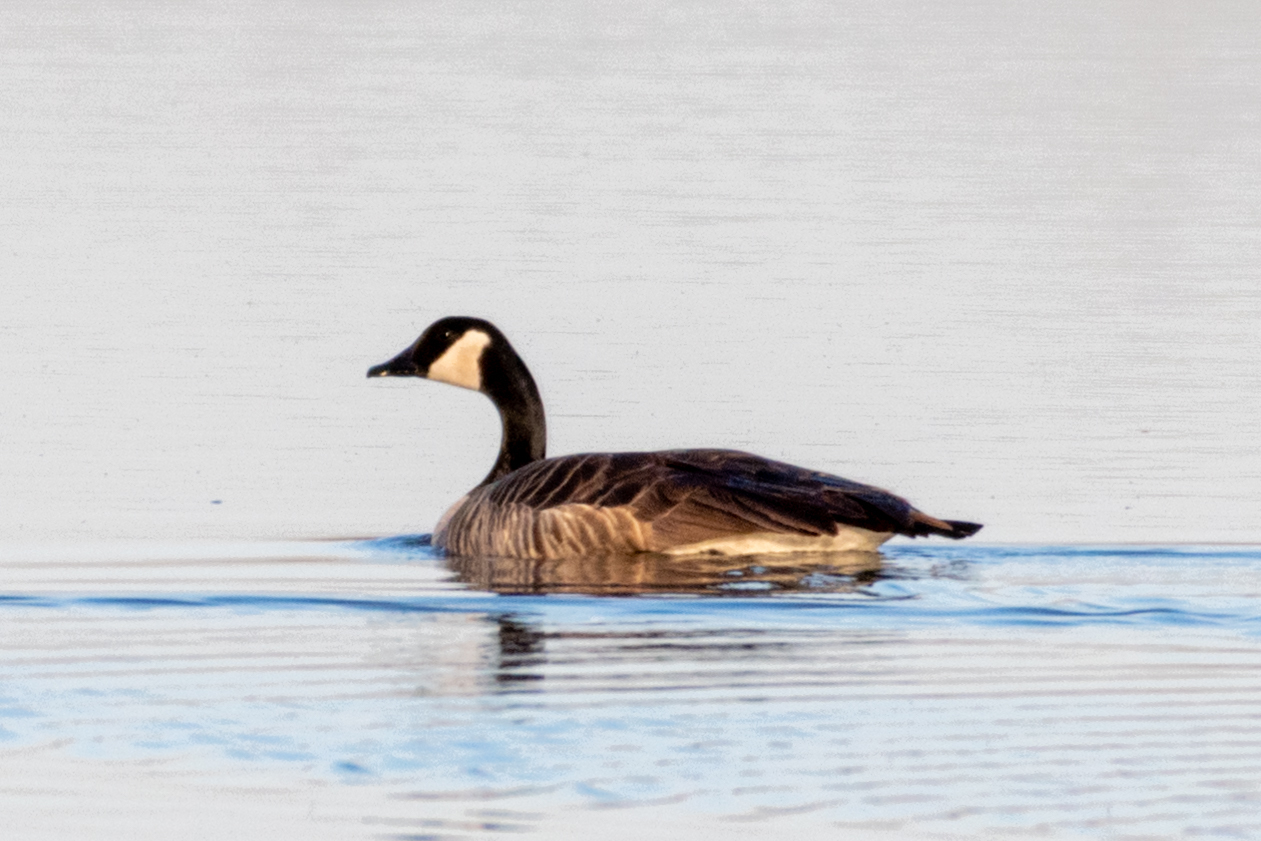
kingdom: Animalia
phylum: Chordata
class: Aves
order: Anseriformes
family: Anatidae
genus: Branta
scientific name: Branta canadensis
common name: Canada goose
